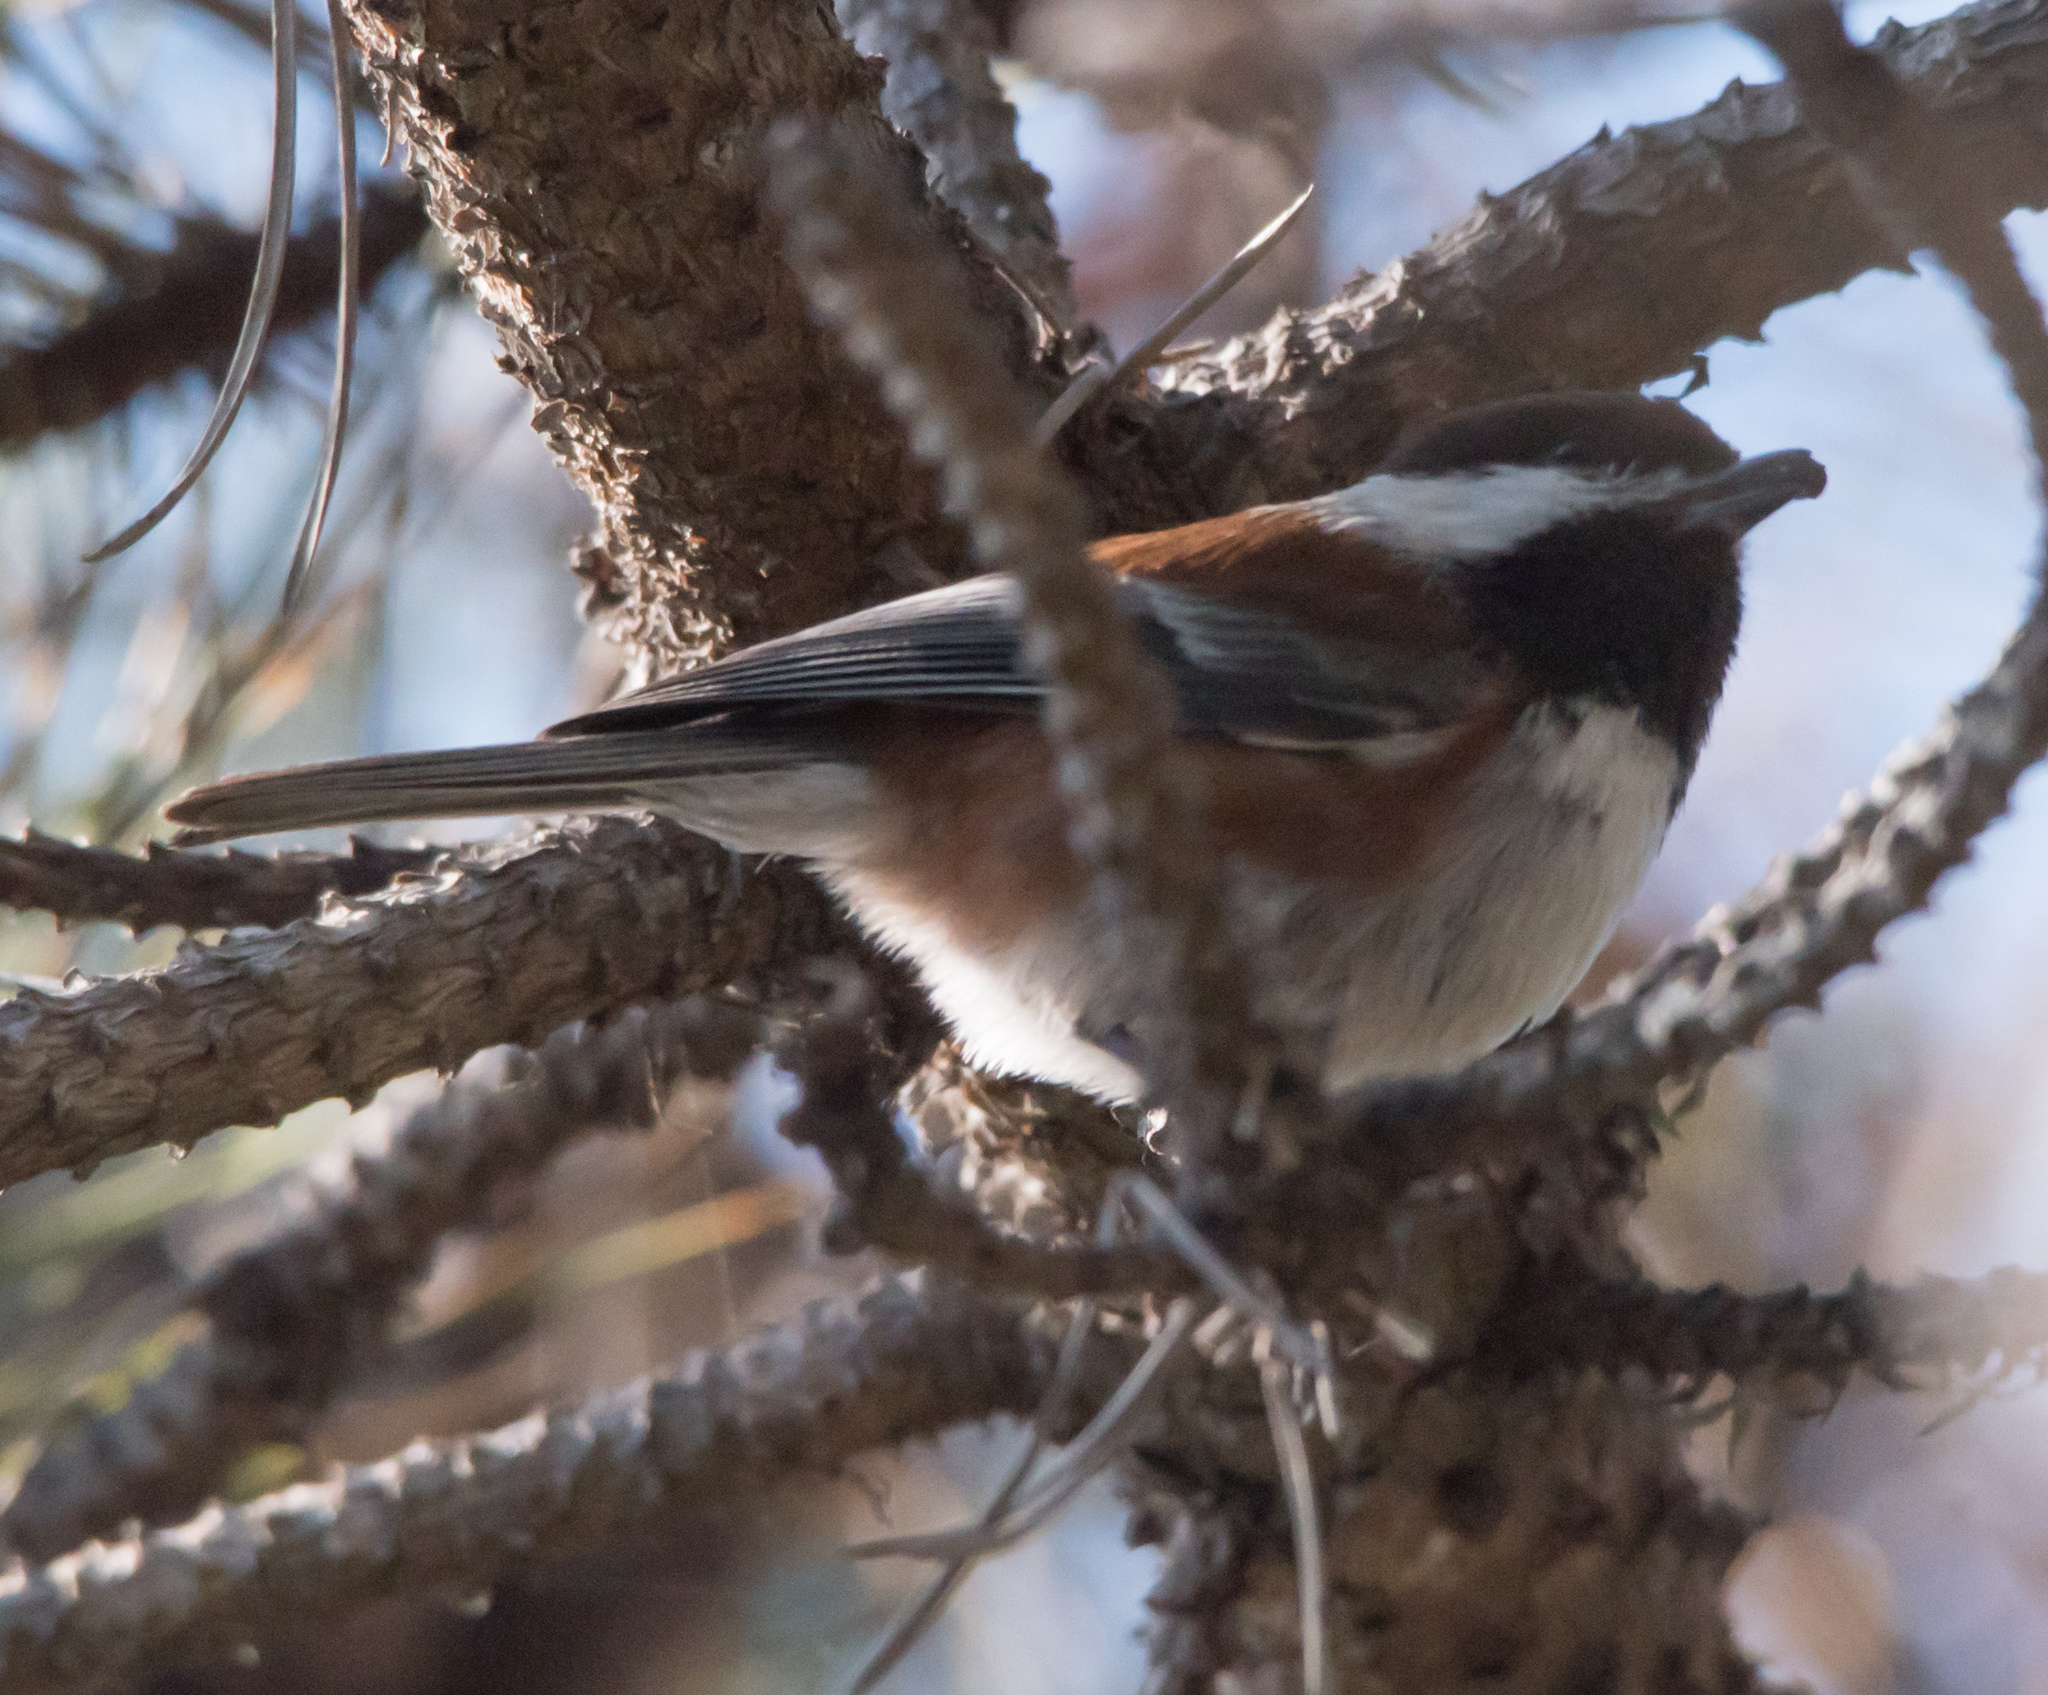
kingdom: Animalia
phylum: Chordata
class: Aves
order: Passeriformes
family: Paridae
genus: Poecile
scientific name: Poecile rufescens
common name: Chestnut-backed chickadee
